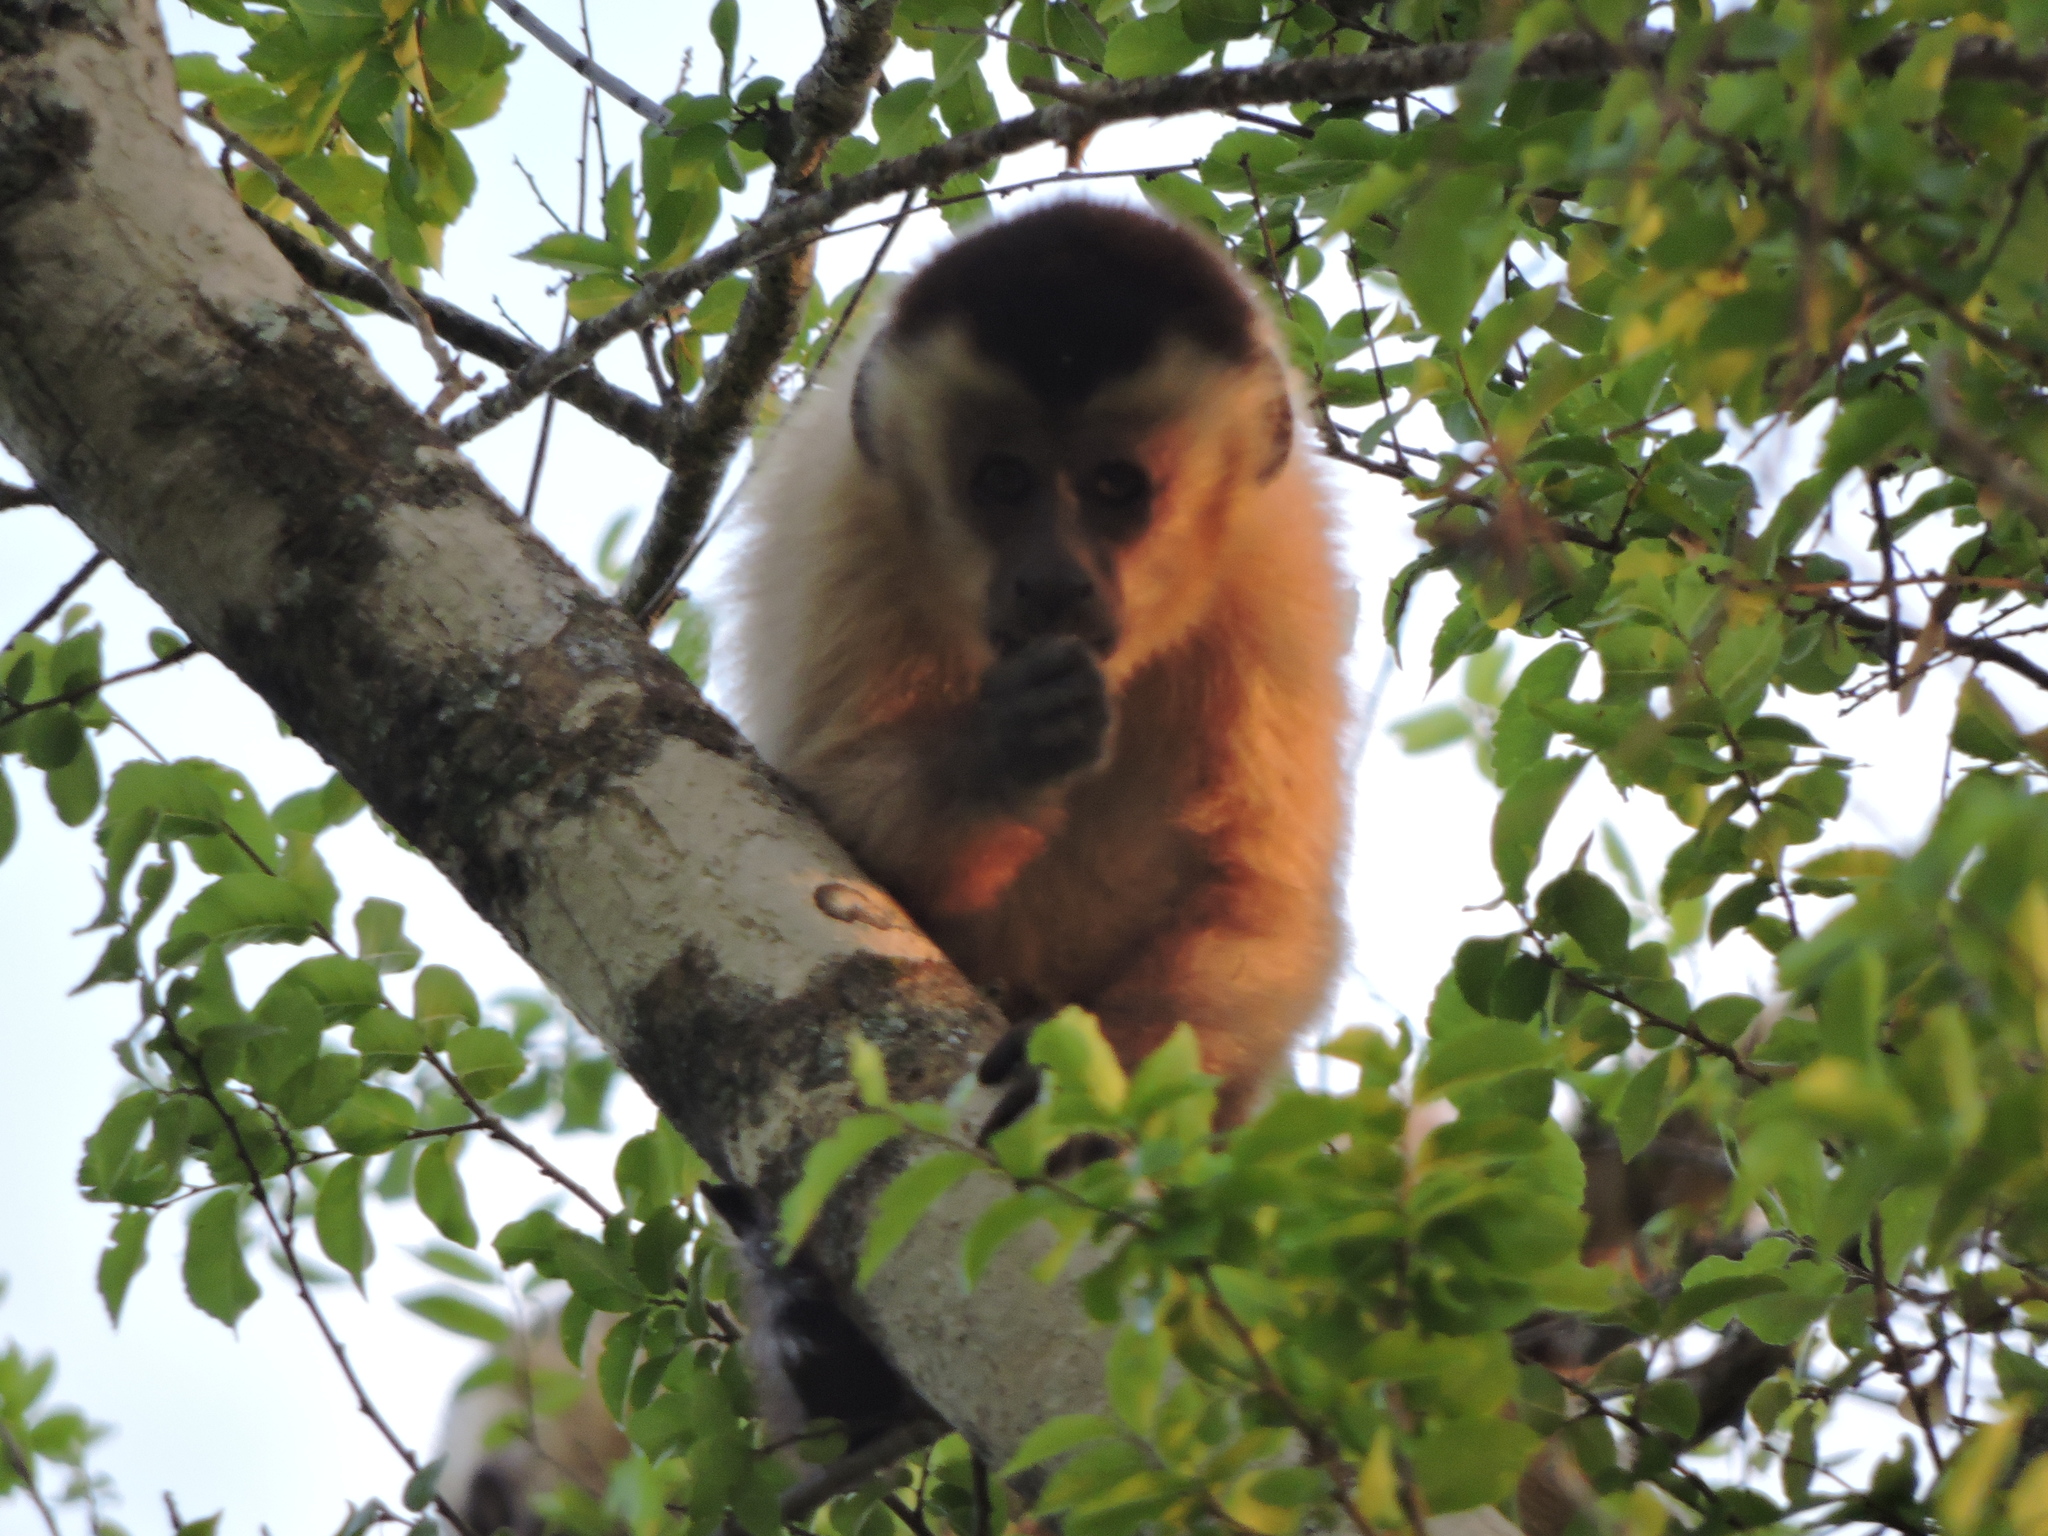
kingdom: Animalia
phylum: Chordata
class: Mammalia
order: Primates
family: Cebidae
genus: Sapajus
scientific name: Sapajus cay
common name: Hooded capuchin
